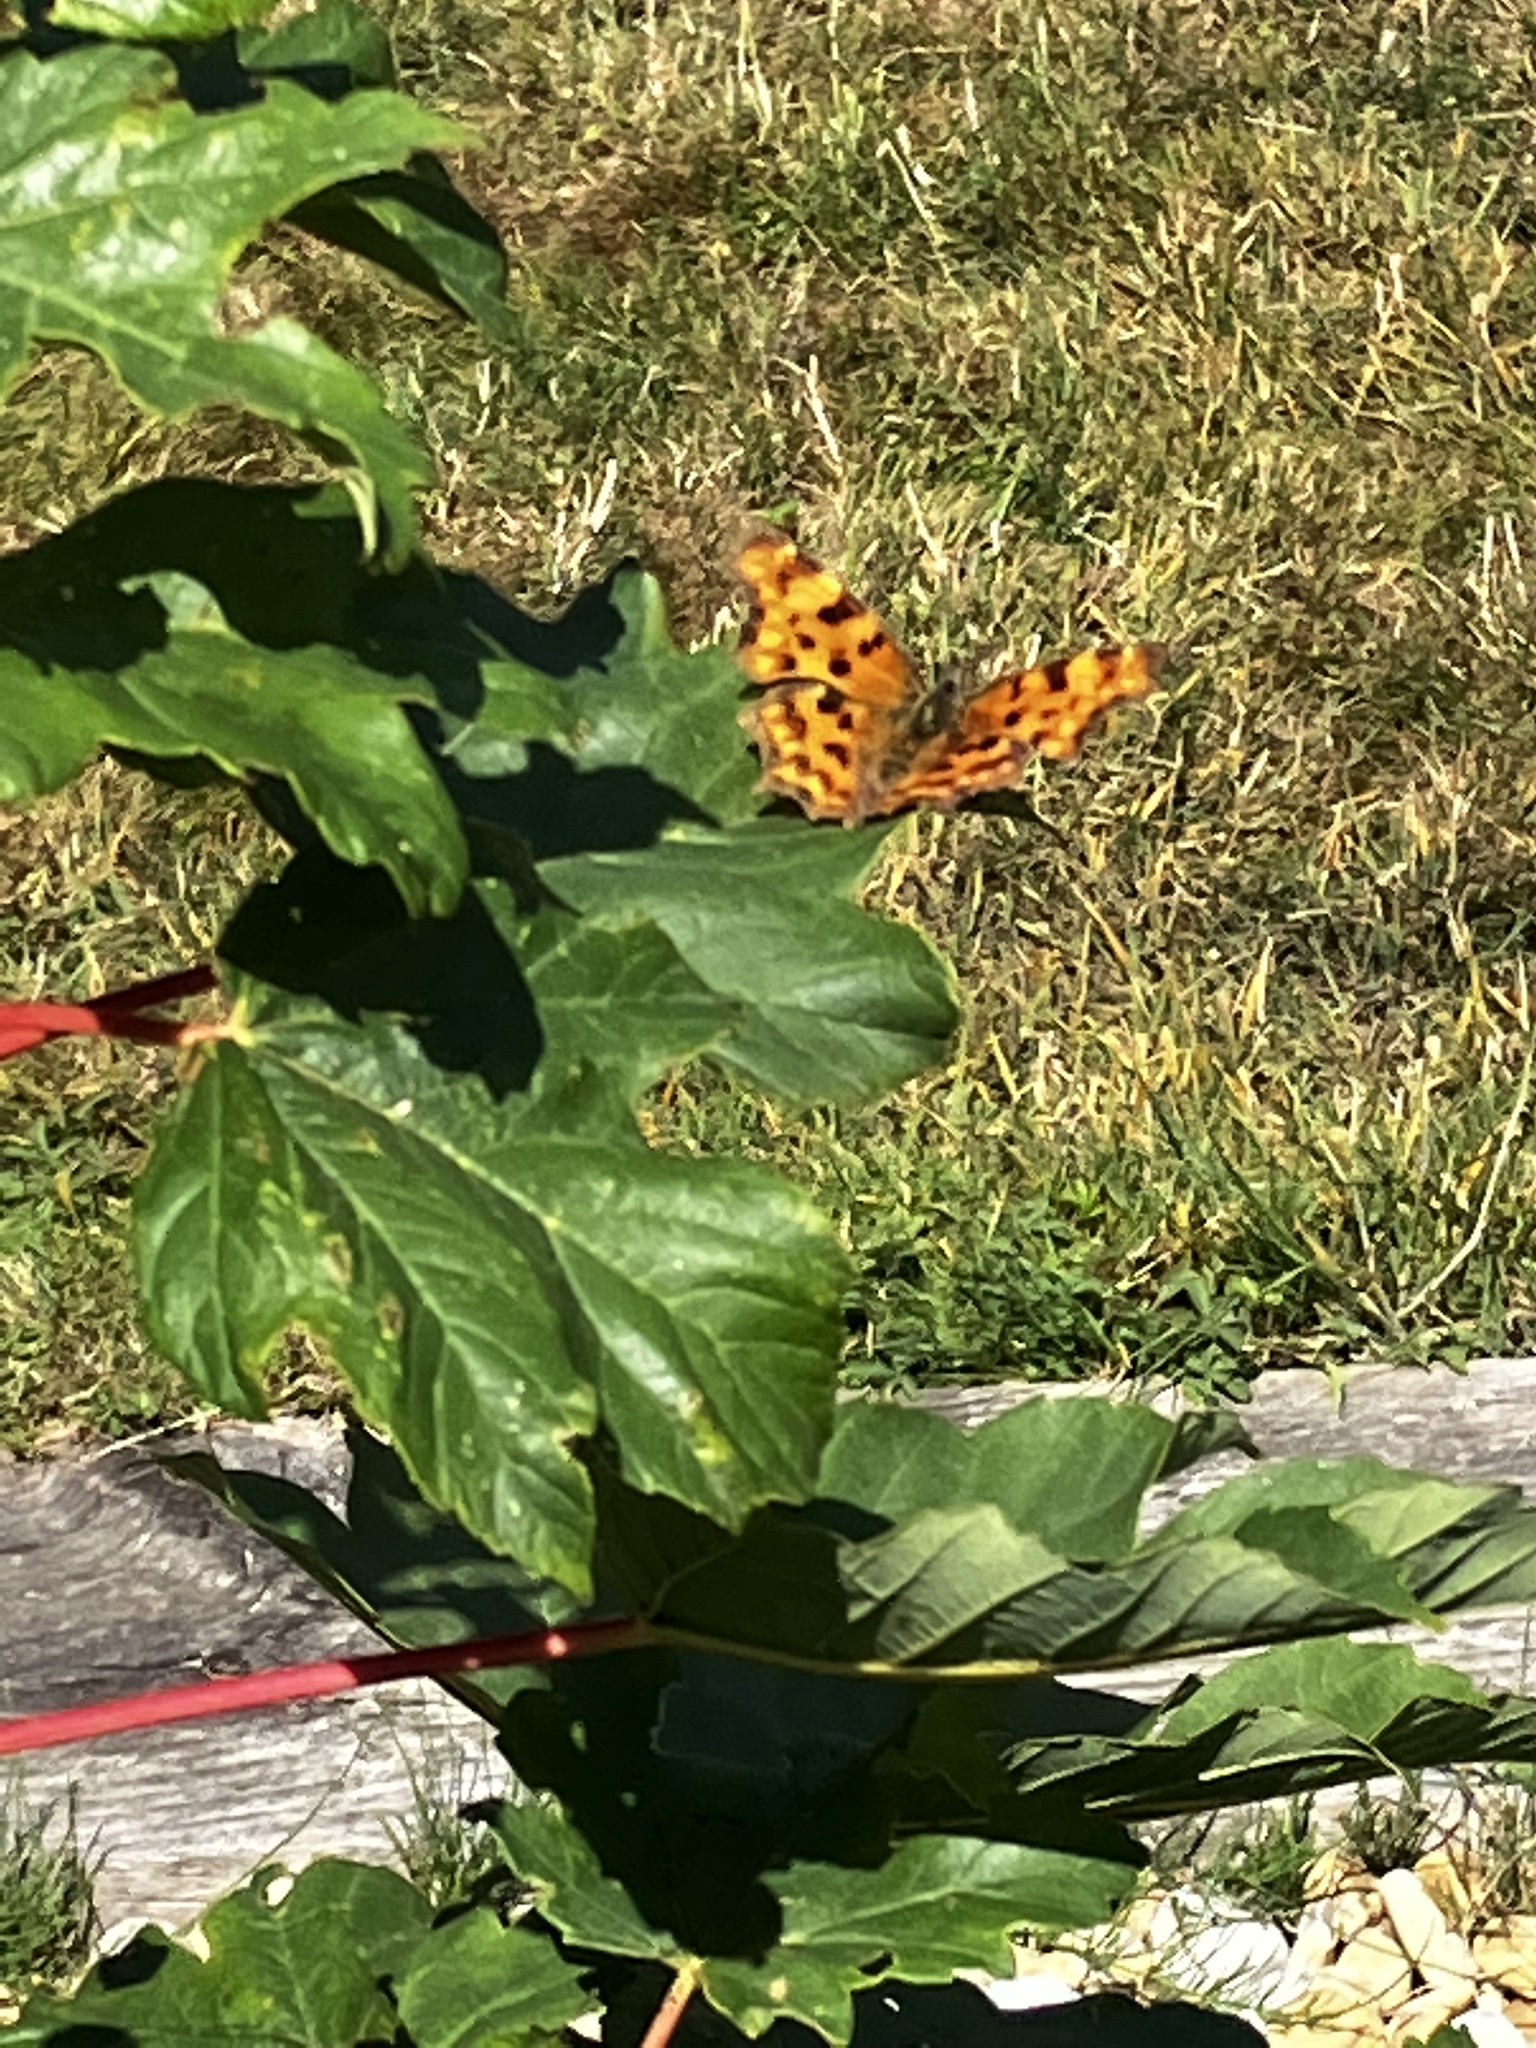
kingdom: Animalia
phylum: Arthropoda
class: Insecta
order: Lepidoptera
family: Nymphalidae
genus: Polygonia
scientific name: Polygonia c-album
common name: Comma
